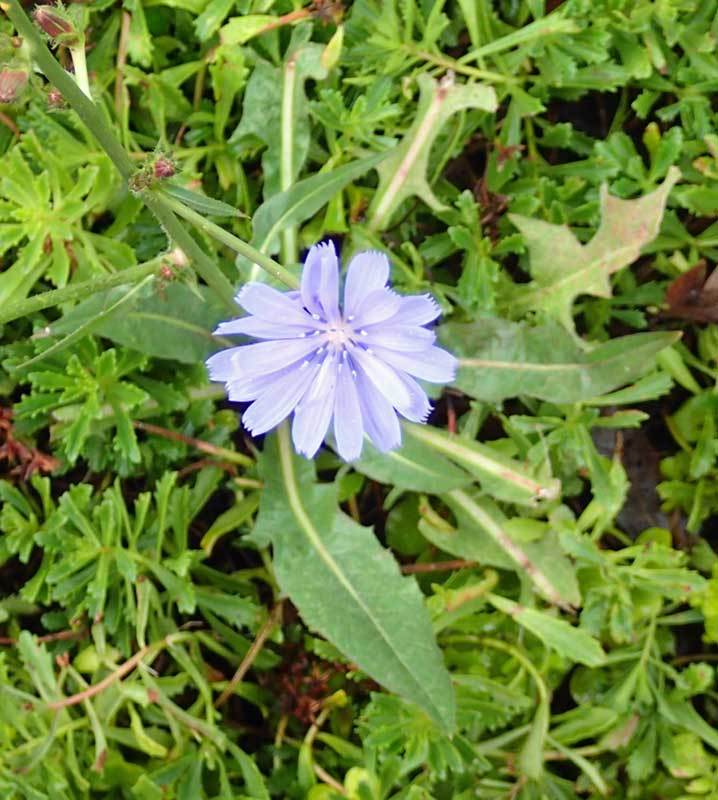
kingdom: Plantae
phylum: Tracheophyta
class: Magnoliopsida
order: Asterales
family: Asteraceae
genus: Cichorium
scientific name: Cichorium intybus
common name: Chicory
